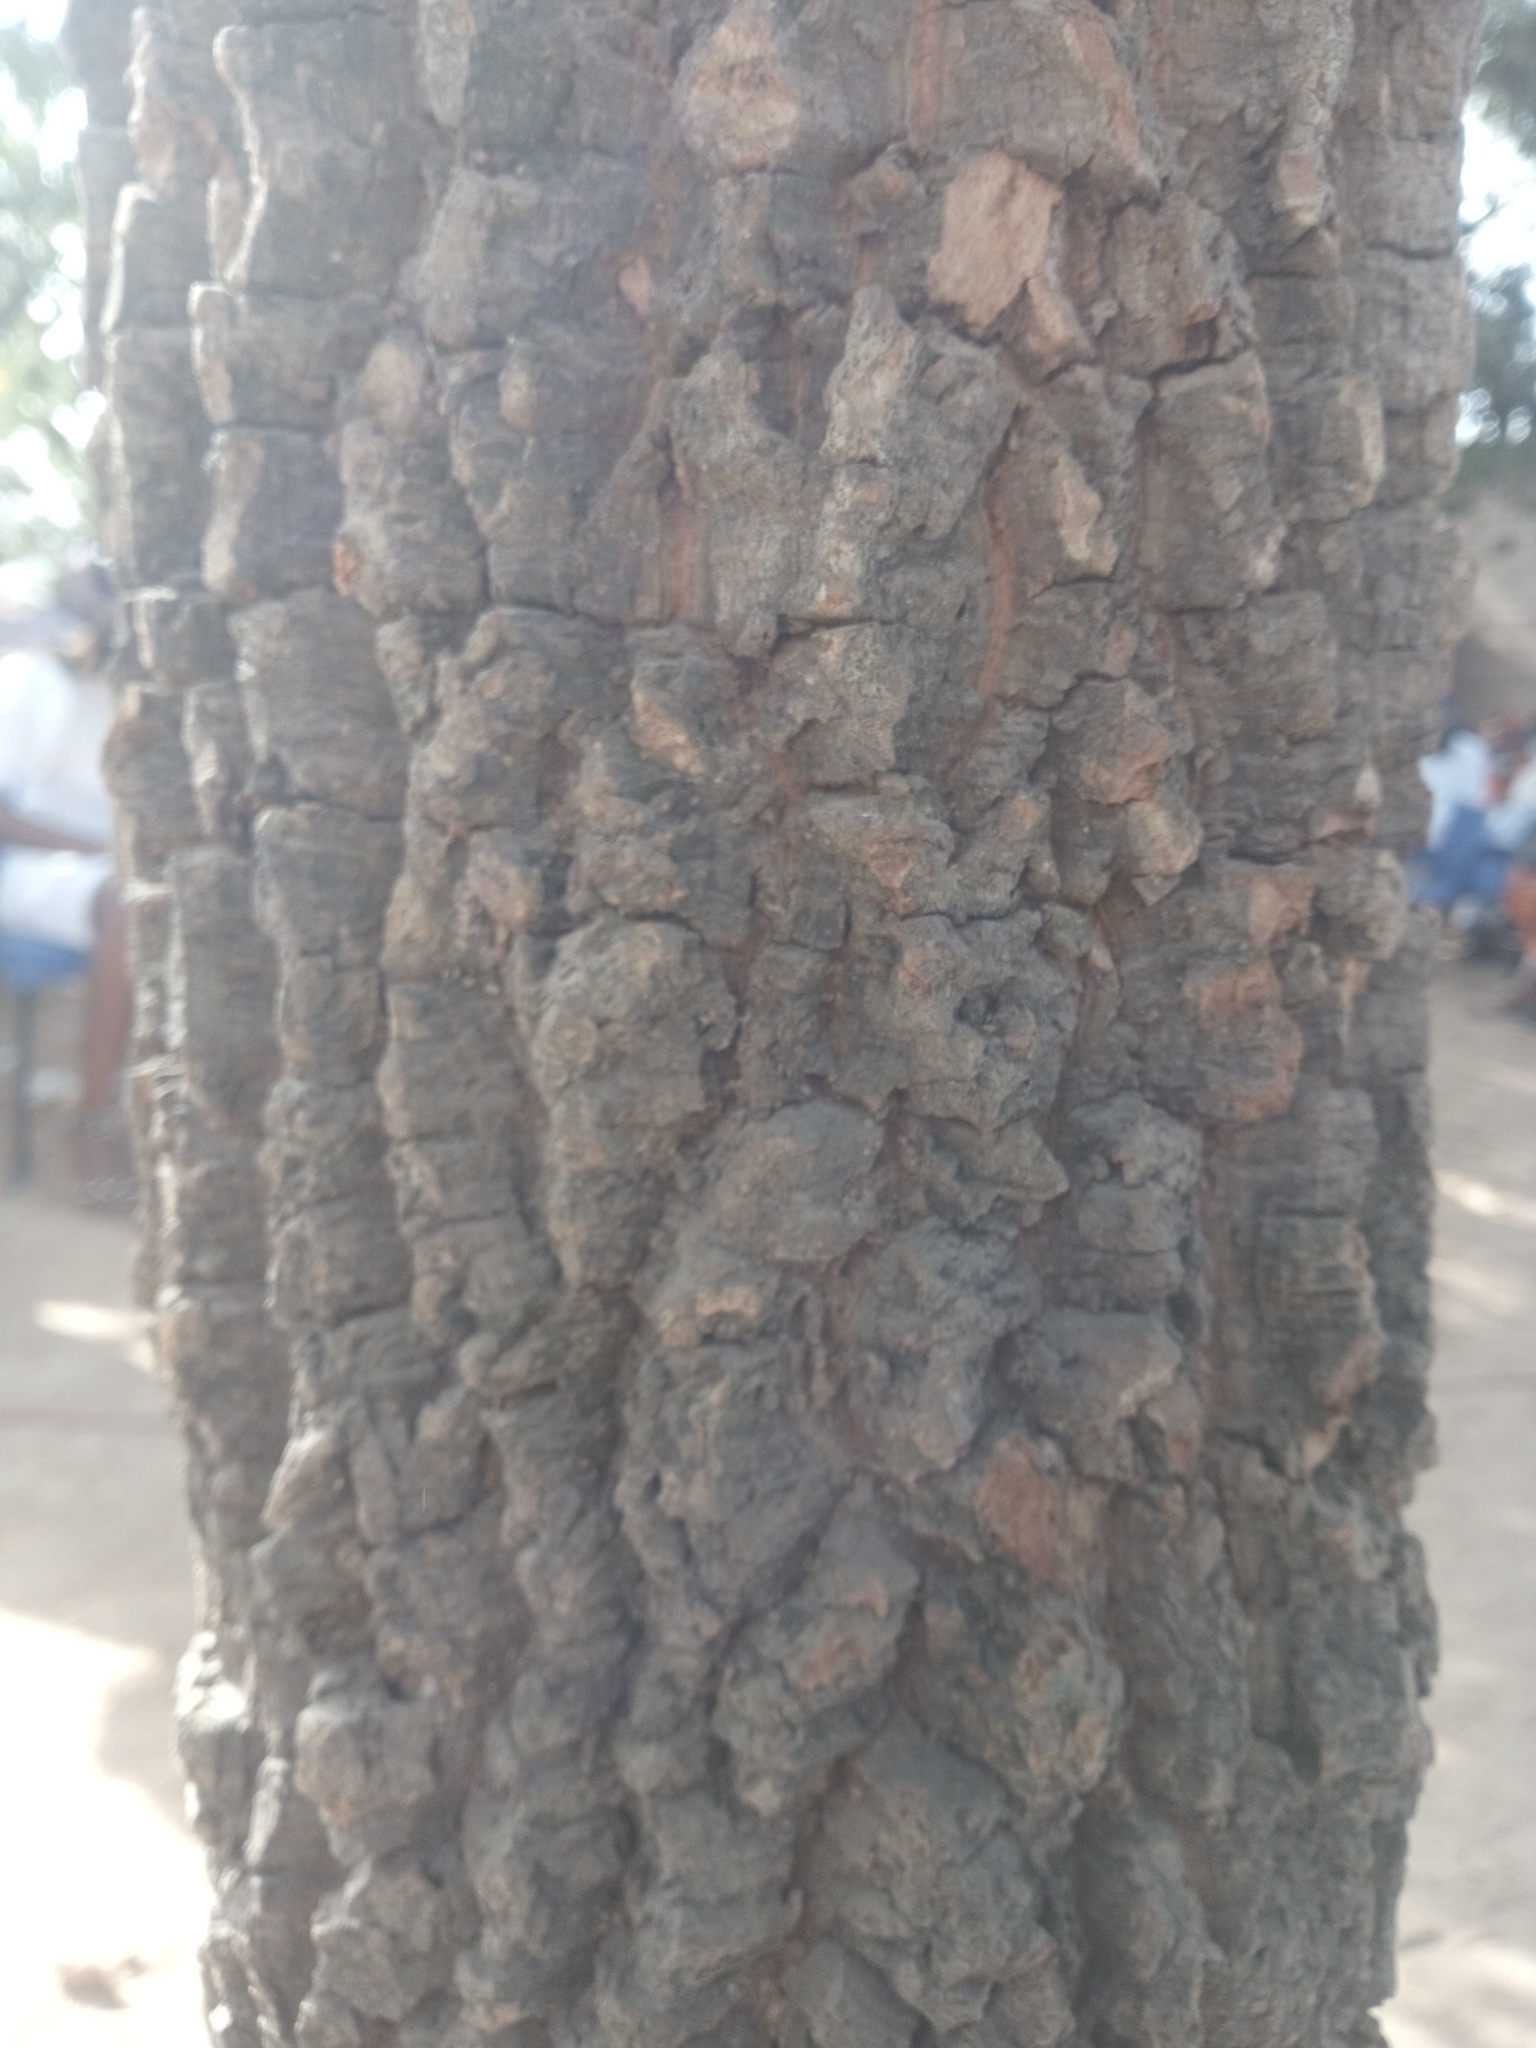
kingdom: Plantae
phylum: Tracheophyta
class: Magnoliopsida
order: Fabales
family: Fabaceae
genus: Tamarindus
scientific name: Tamarindus indica
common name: Tamarind
